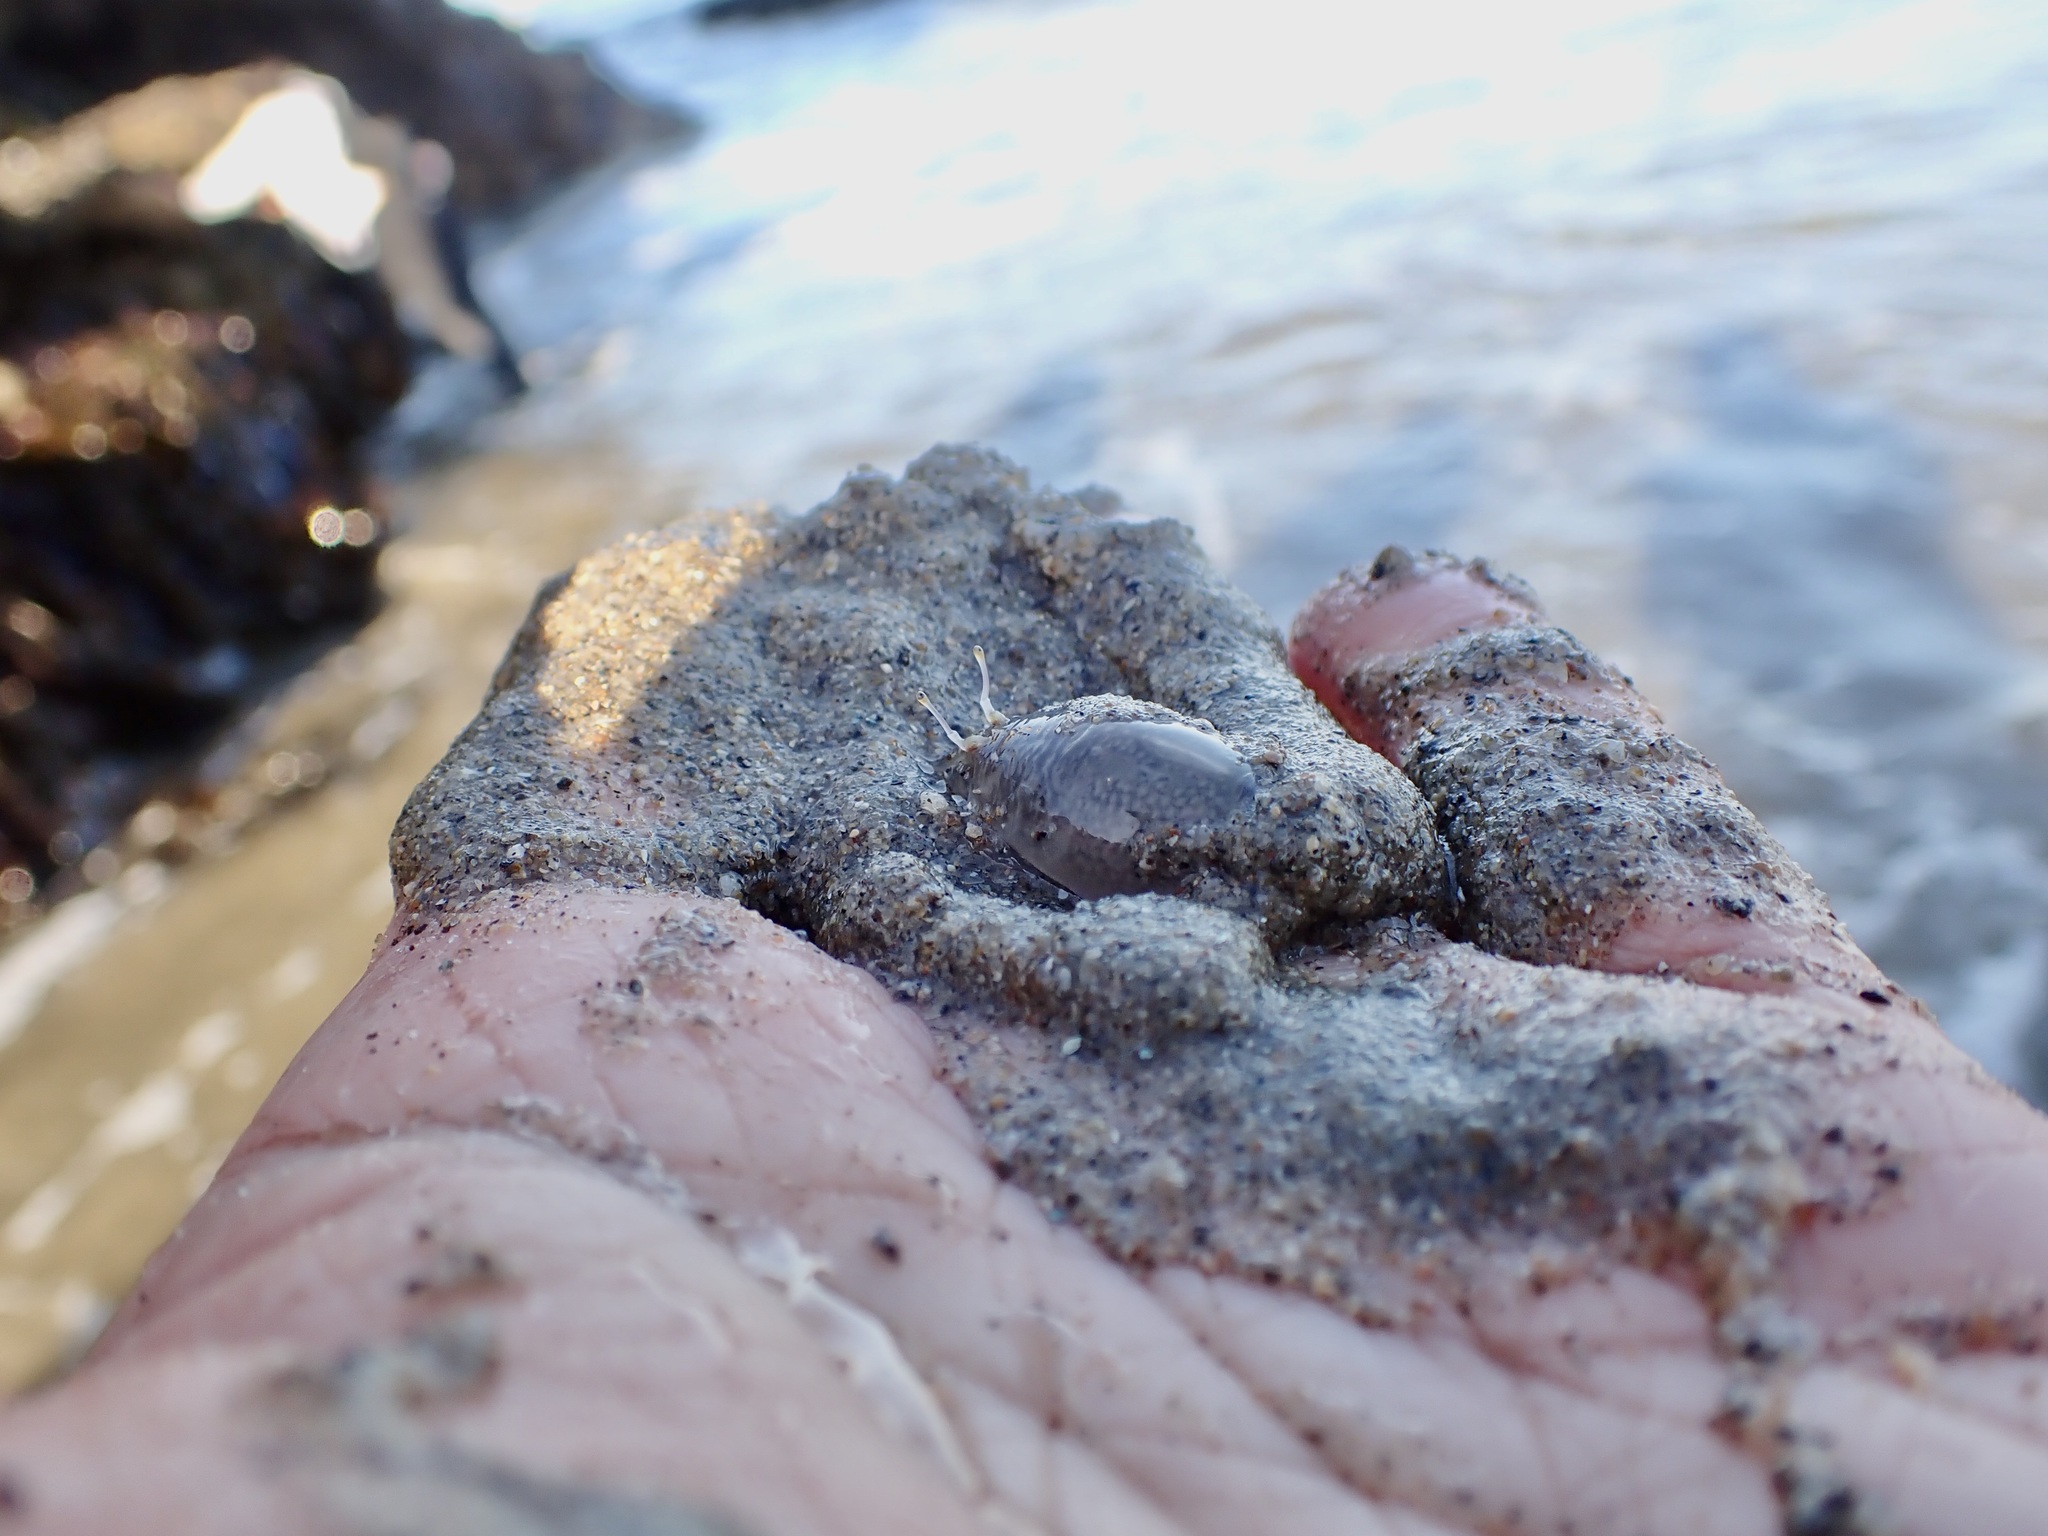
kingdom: Animalia
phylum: Arthropoda
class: Malacostraca
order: Decapoda
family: Hippidae
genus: Emerita
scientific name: Emerita analoga
